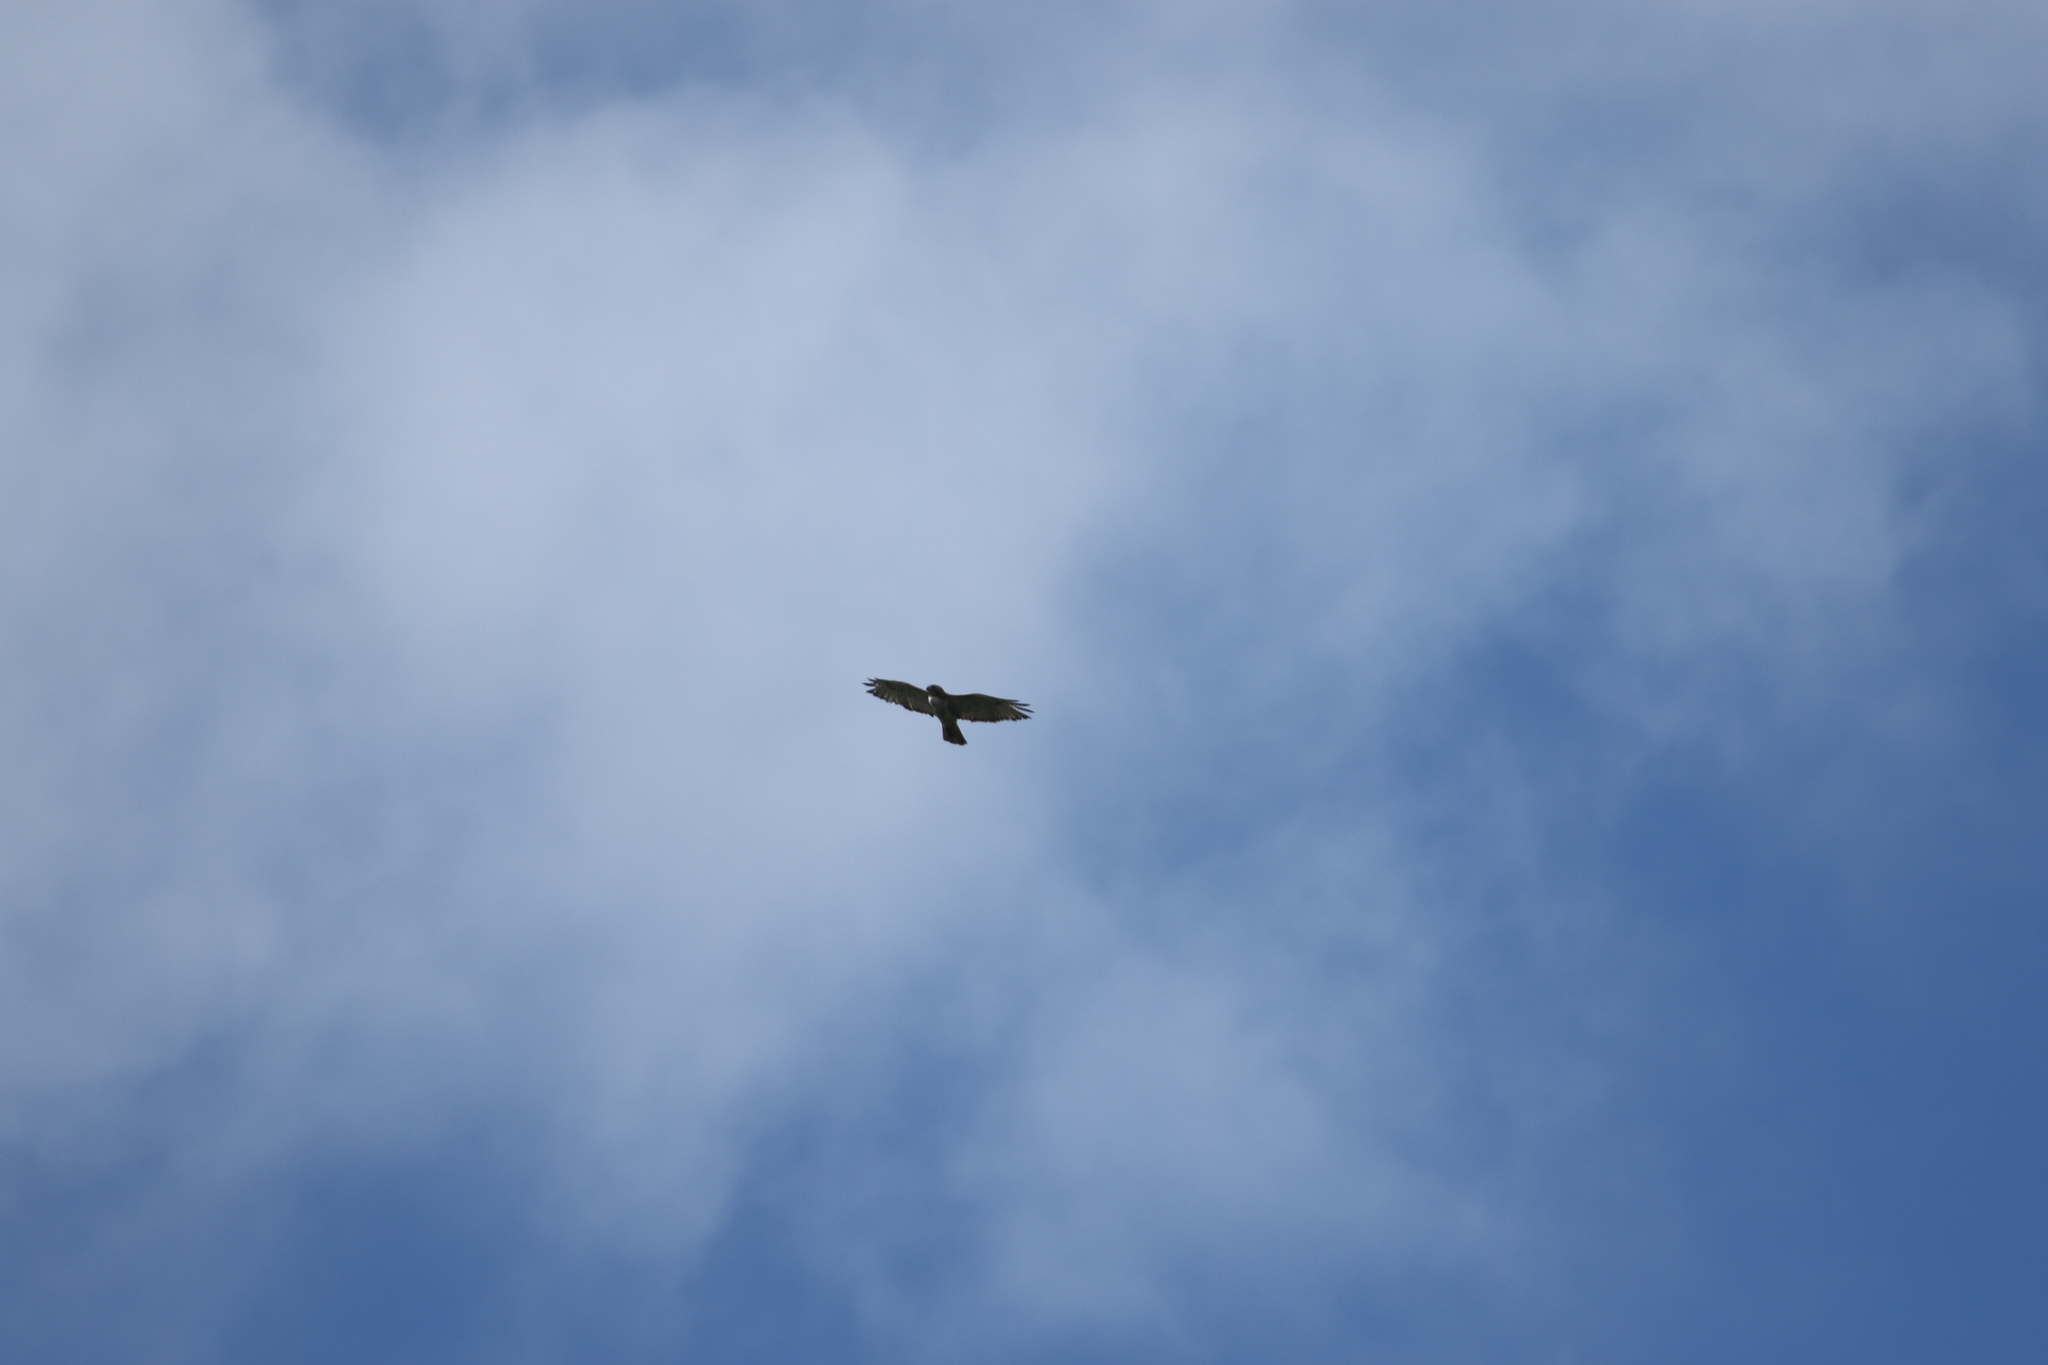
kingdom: Animalia
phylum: Chordata
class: Aves
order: Accipitriformes
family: Accipitridae
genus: Buteo
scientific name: Buteo jamaicensis
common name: Red-tailed hawk
